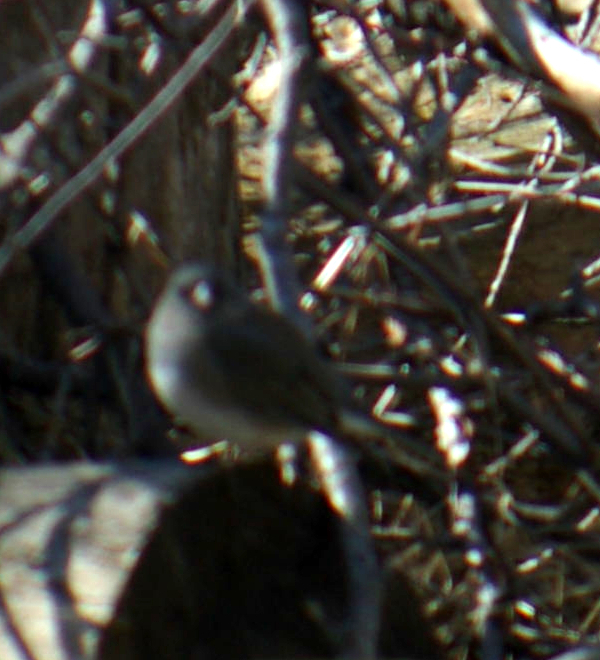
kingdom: Animalia
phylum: Chordata
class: Aves
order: Passeriformes
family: Passerellidae
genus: Junco
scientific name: Junco hyemalis
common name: Dark-eyed junco
